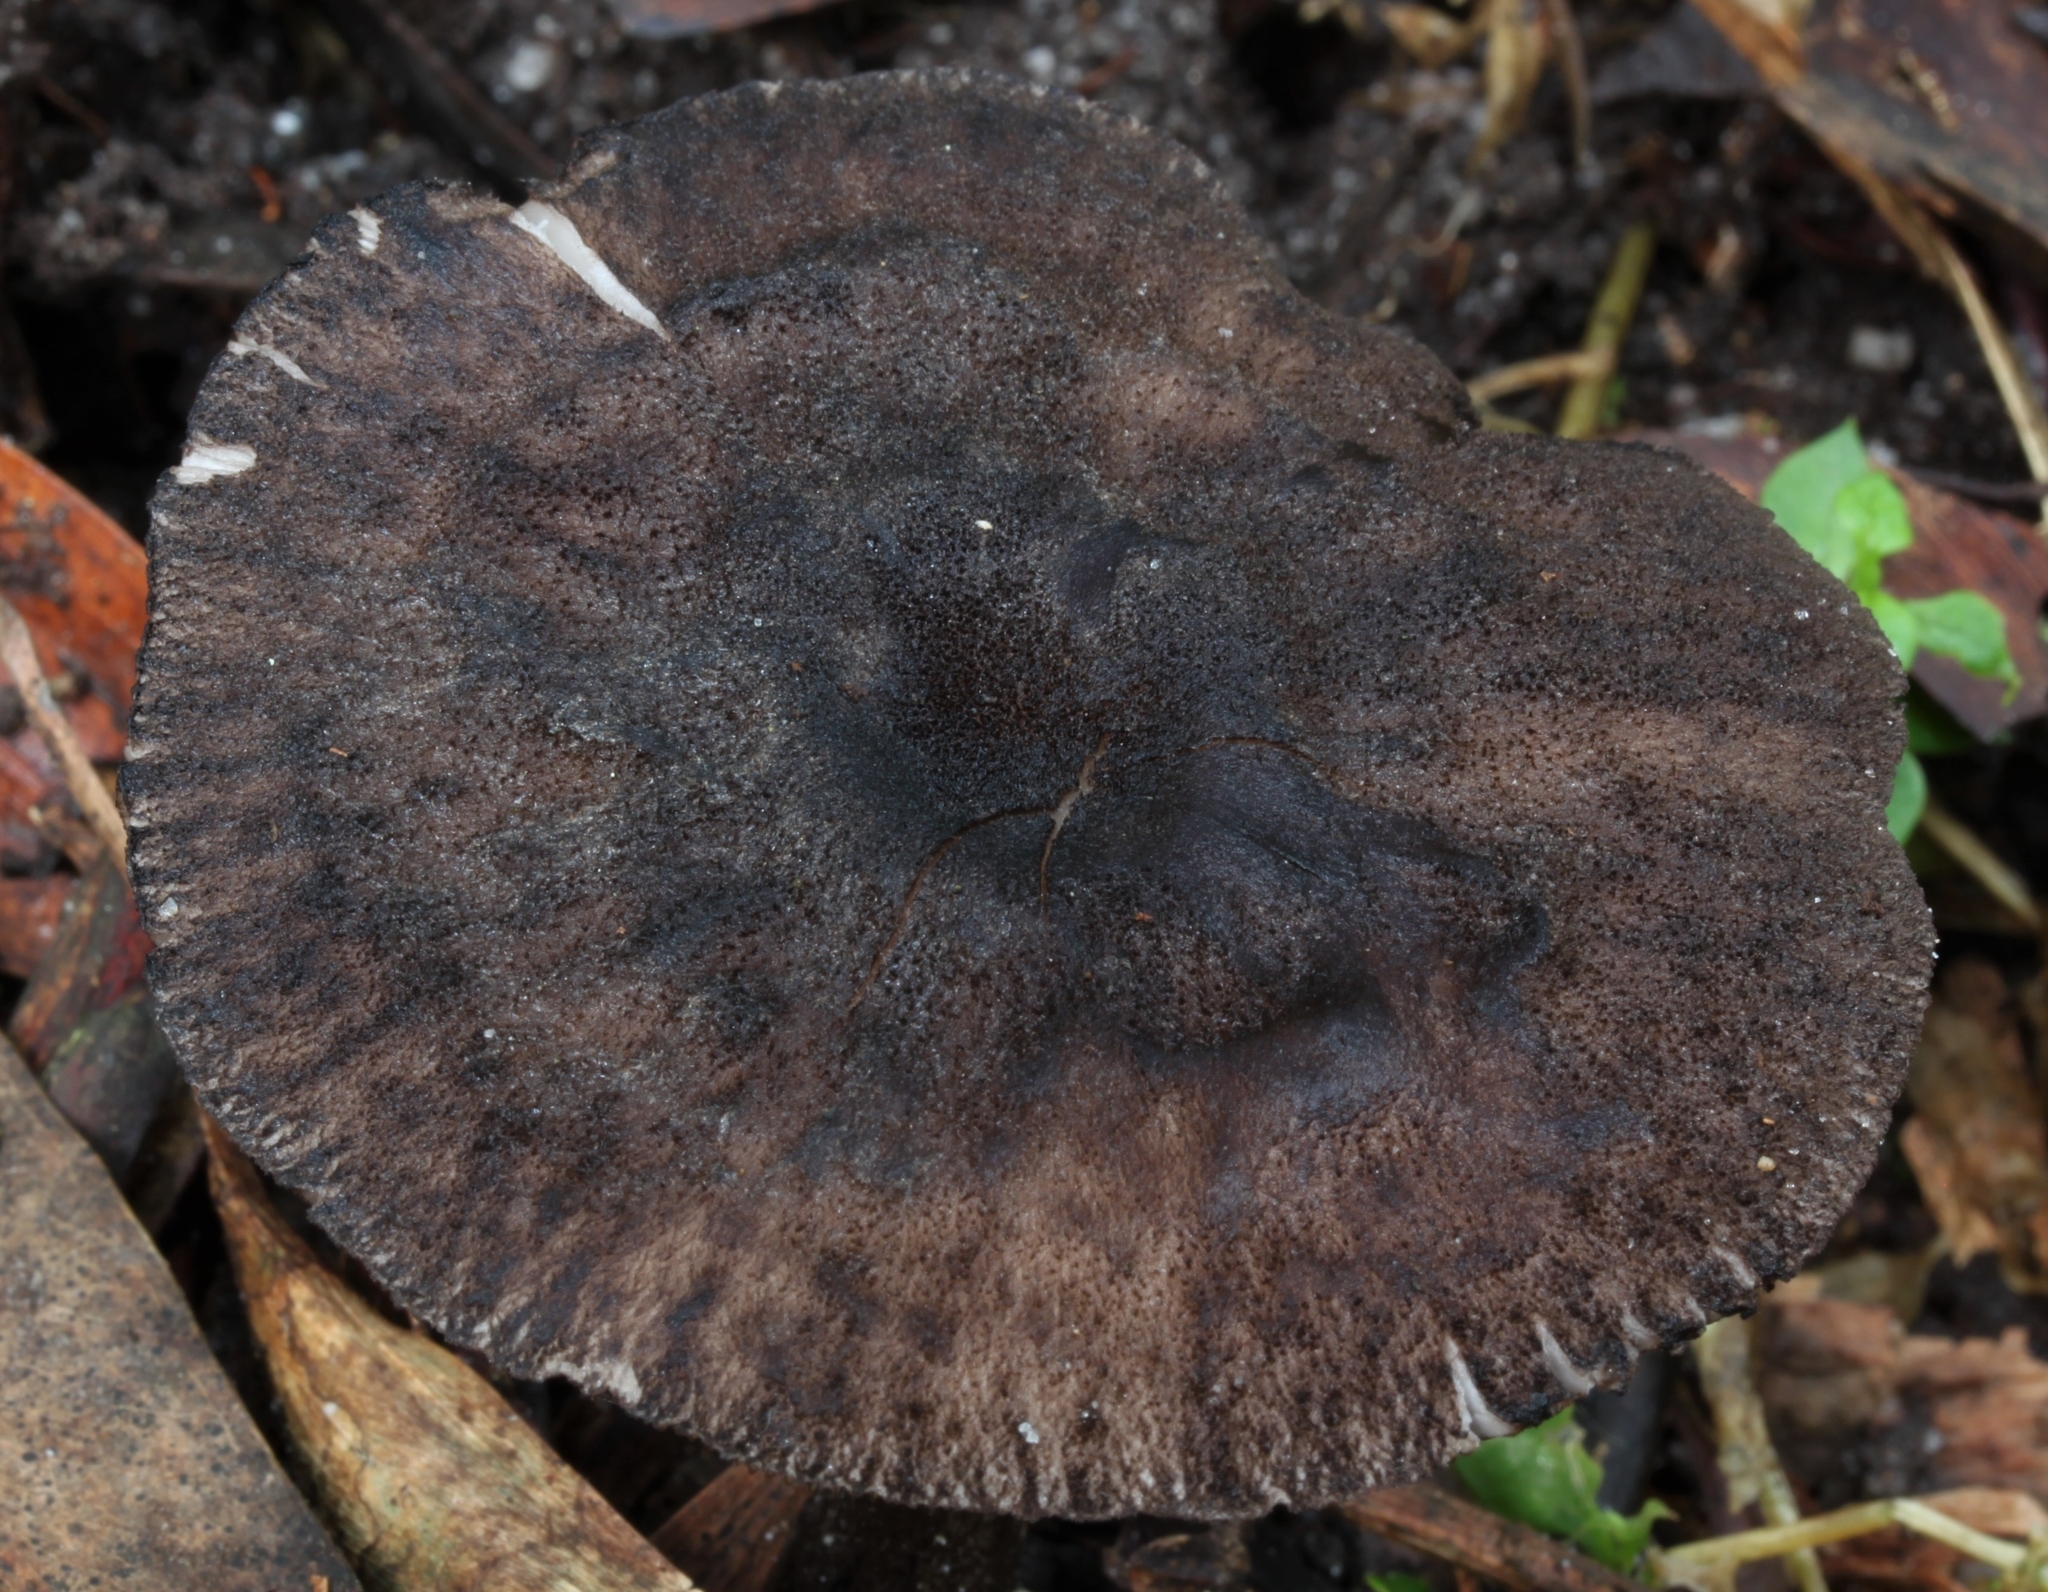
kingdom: Fungi
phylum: Basidiomycota
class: Agaricomycetes
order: Agaricales
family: Pluteaceae
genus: Pluteus
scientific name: Pluteus atromarginatus
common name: Blackedged shield
